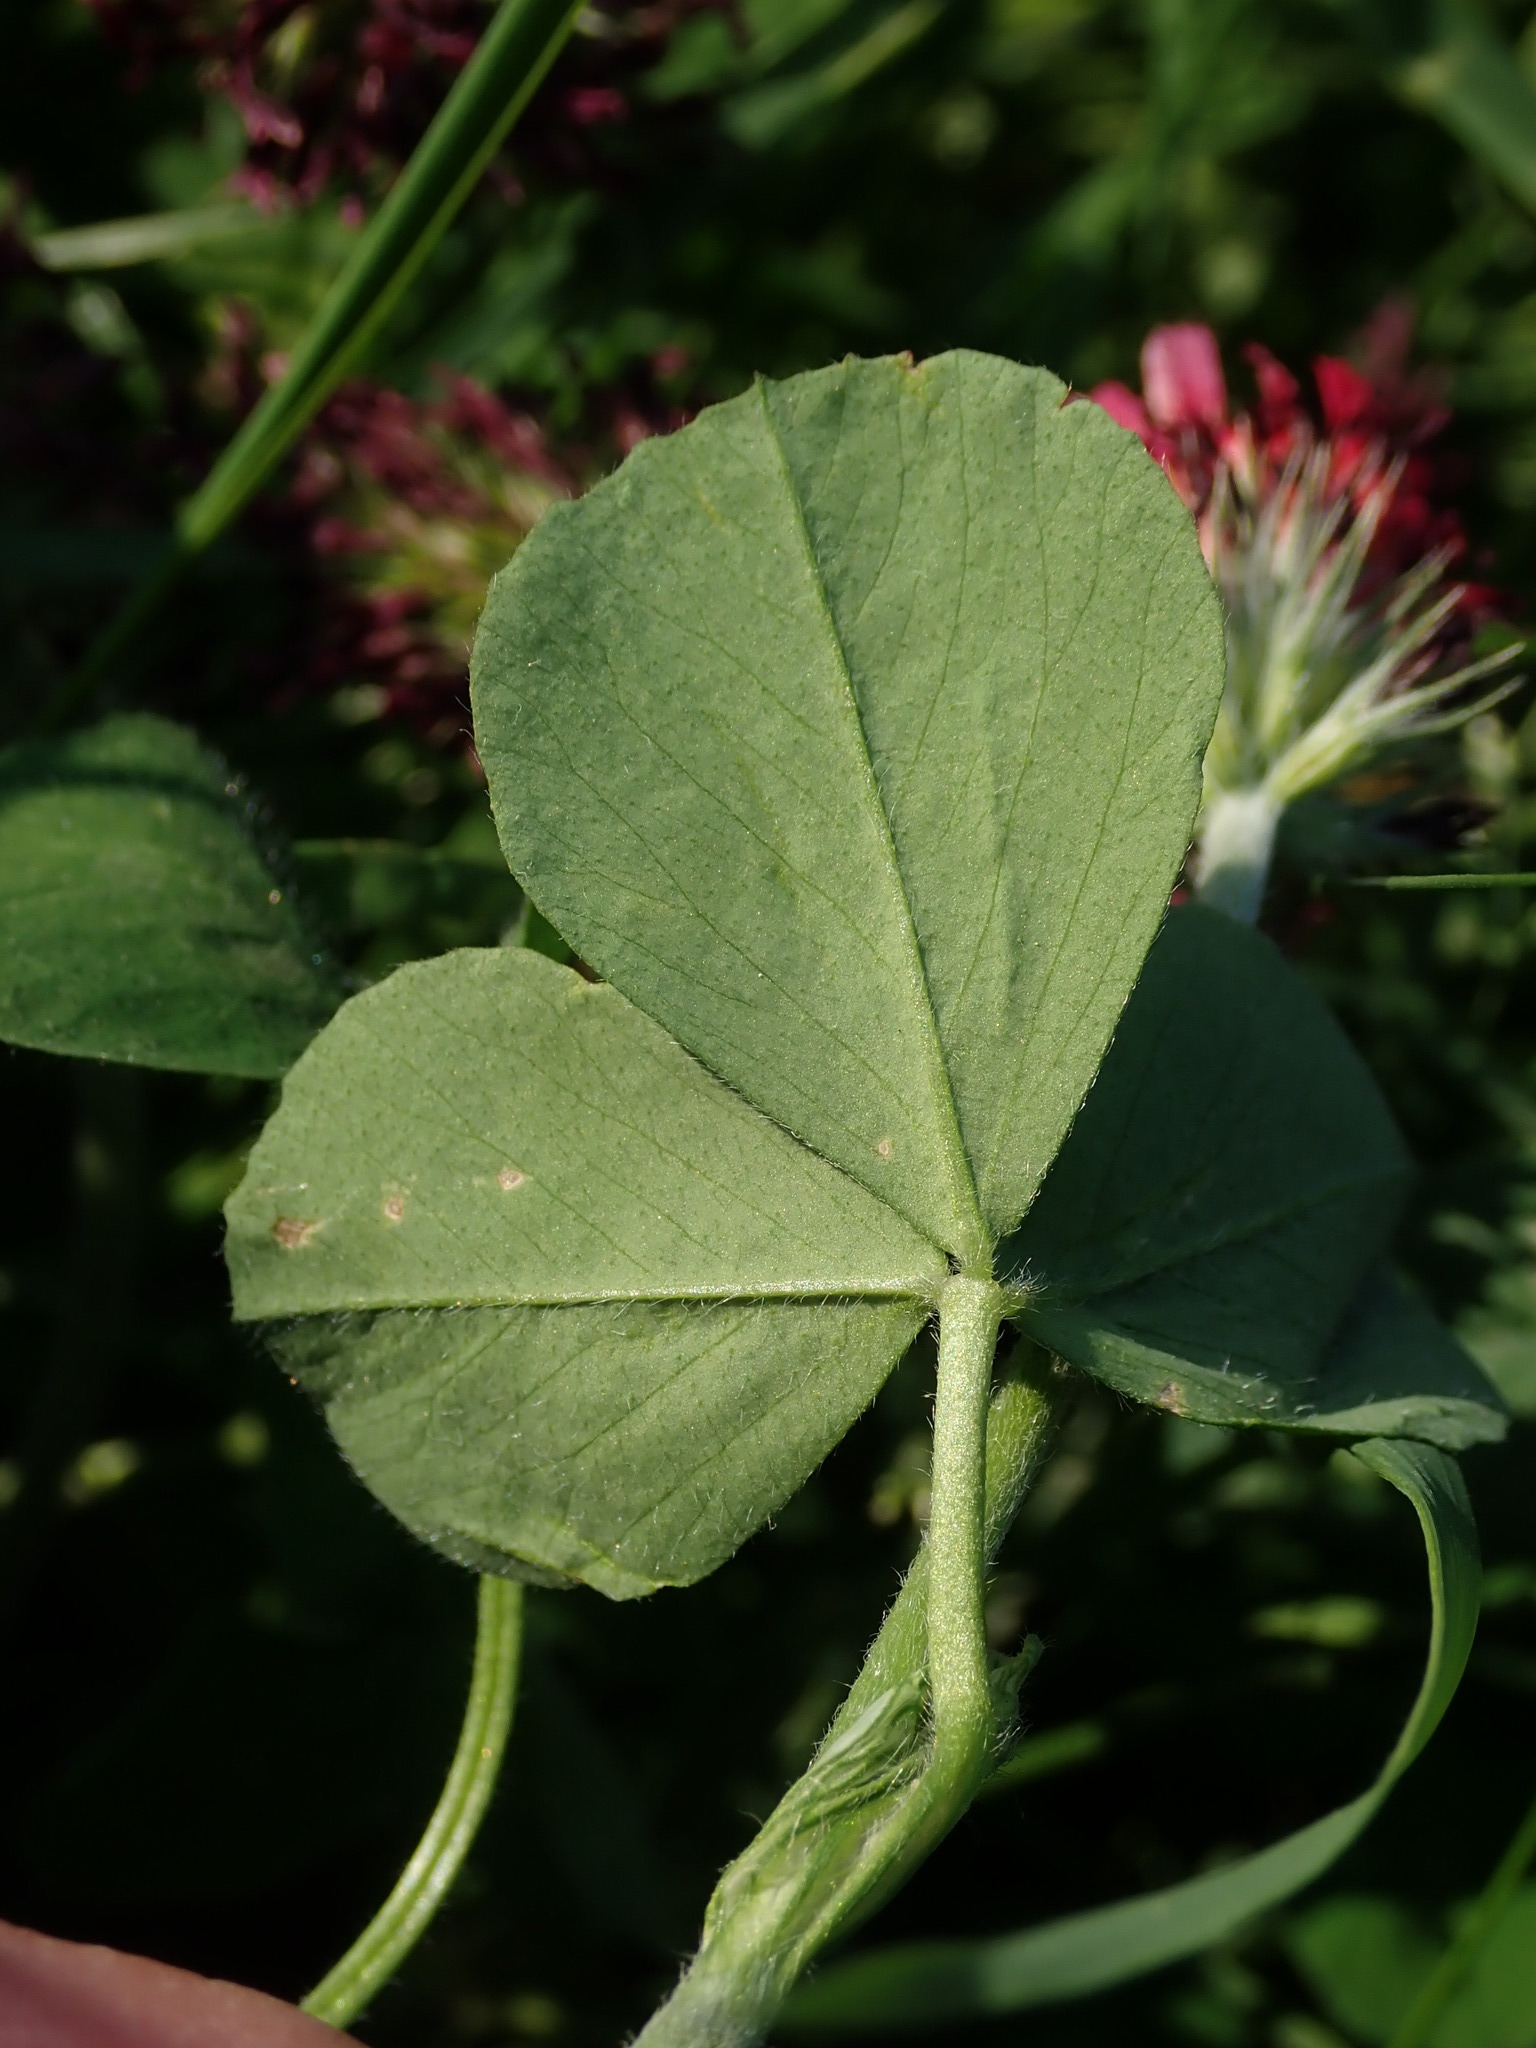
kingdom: Plantae
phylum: Tracheophyta
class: Magnoliopsida
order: Fabales
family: Fabaceae
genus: Trifolium
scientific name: Trifolium incarnatum
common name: Crimson clover
